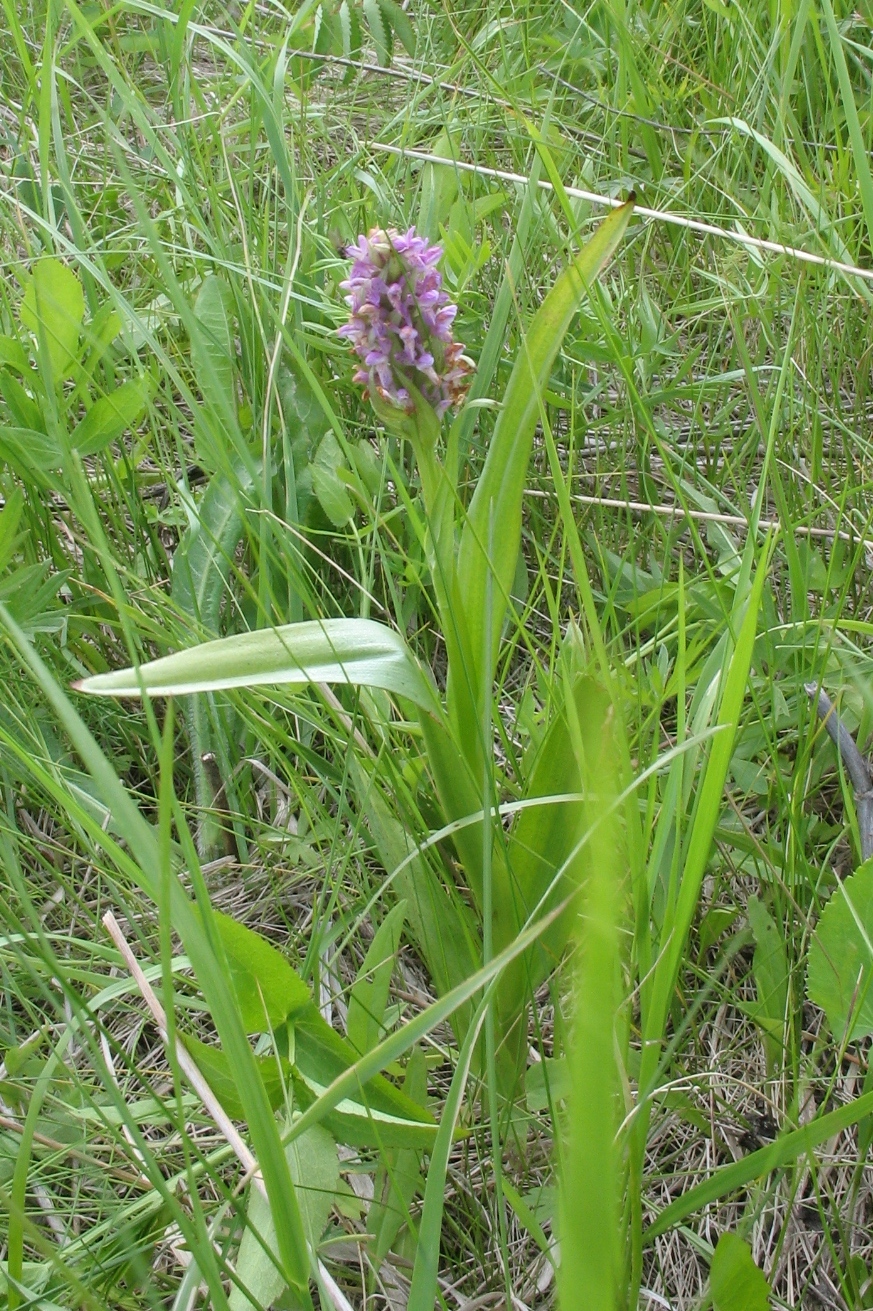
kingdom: Plantae
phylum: Tracheophyta
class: Liliopsida
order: Asparagales
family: Orchidaceae
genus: Dactylorhiza
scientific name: Dactylorhiza incarnata
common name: Early marsh-orchid
